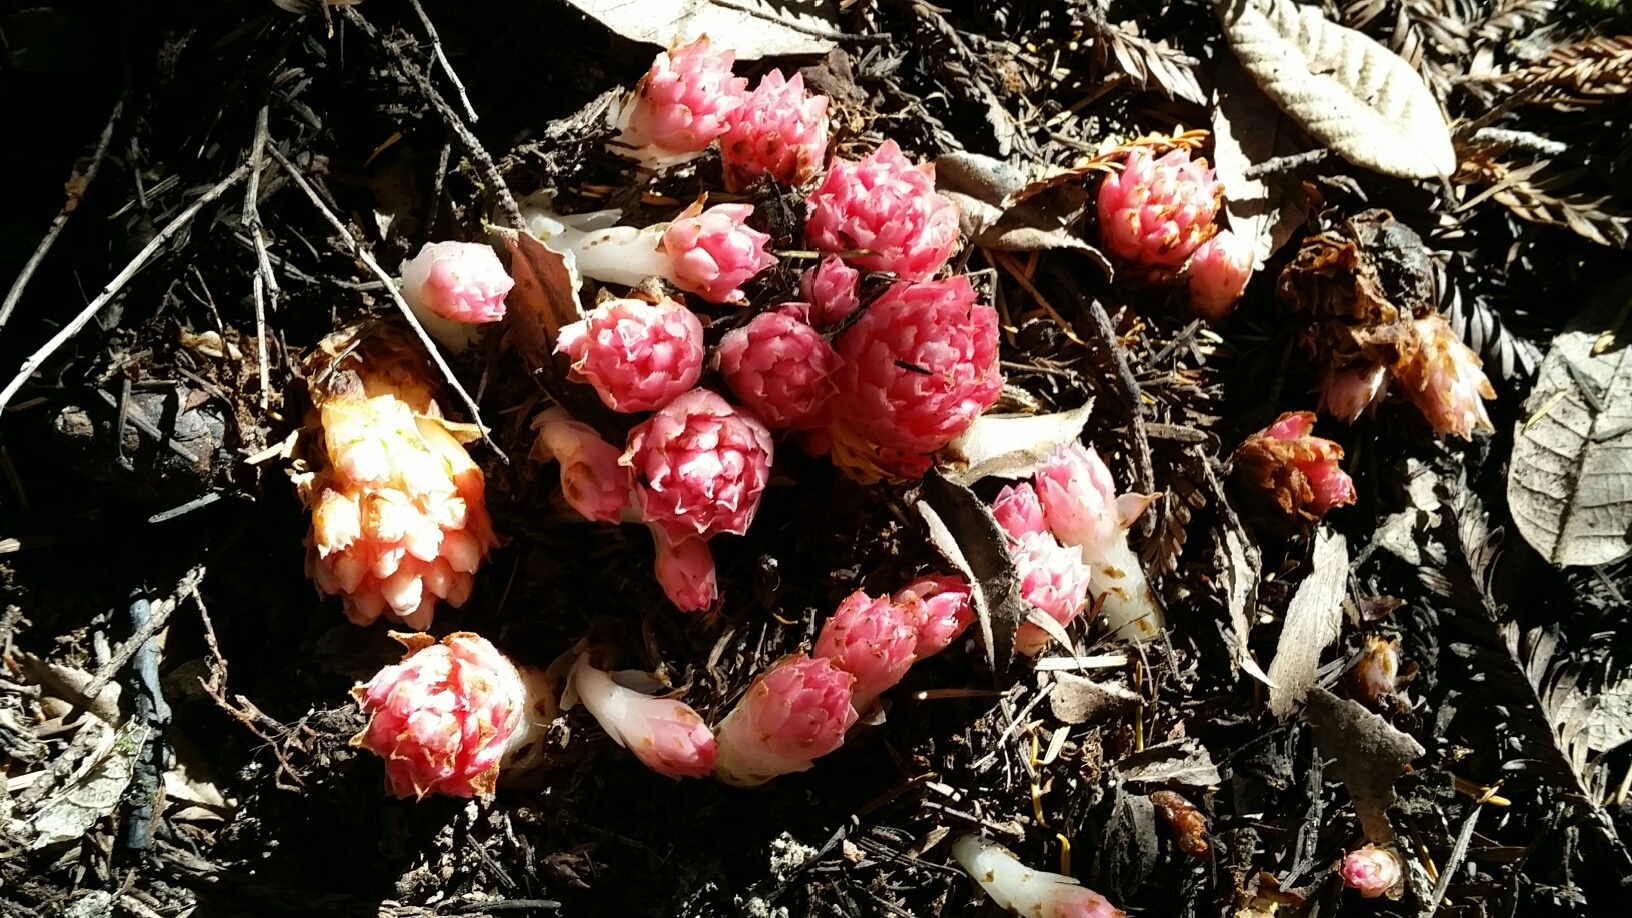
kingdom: Plantae
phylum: Tracheophyta
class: Magnoliopsida
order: Ericales
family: Ericaceae
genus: Hemitomes
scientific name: Hemitomes congestum
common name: Cone plant
